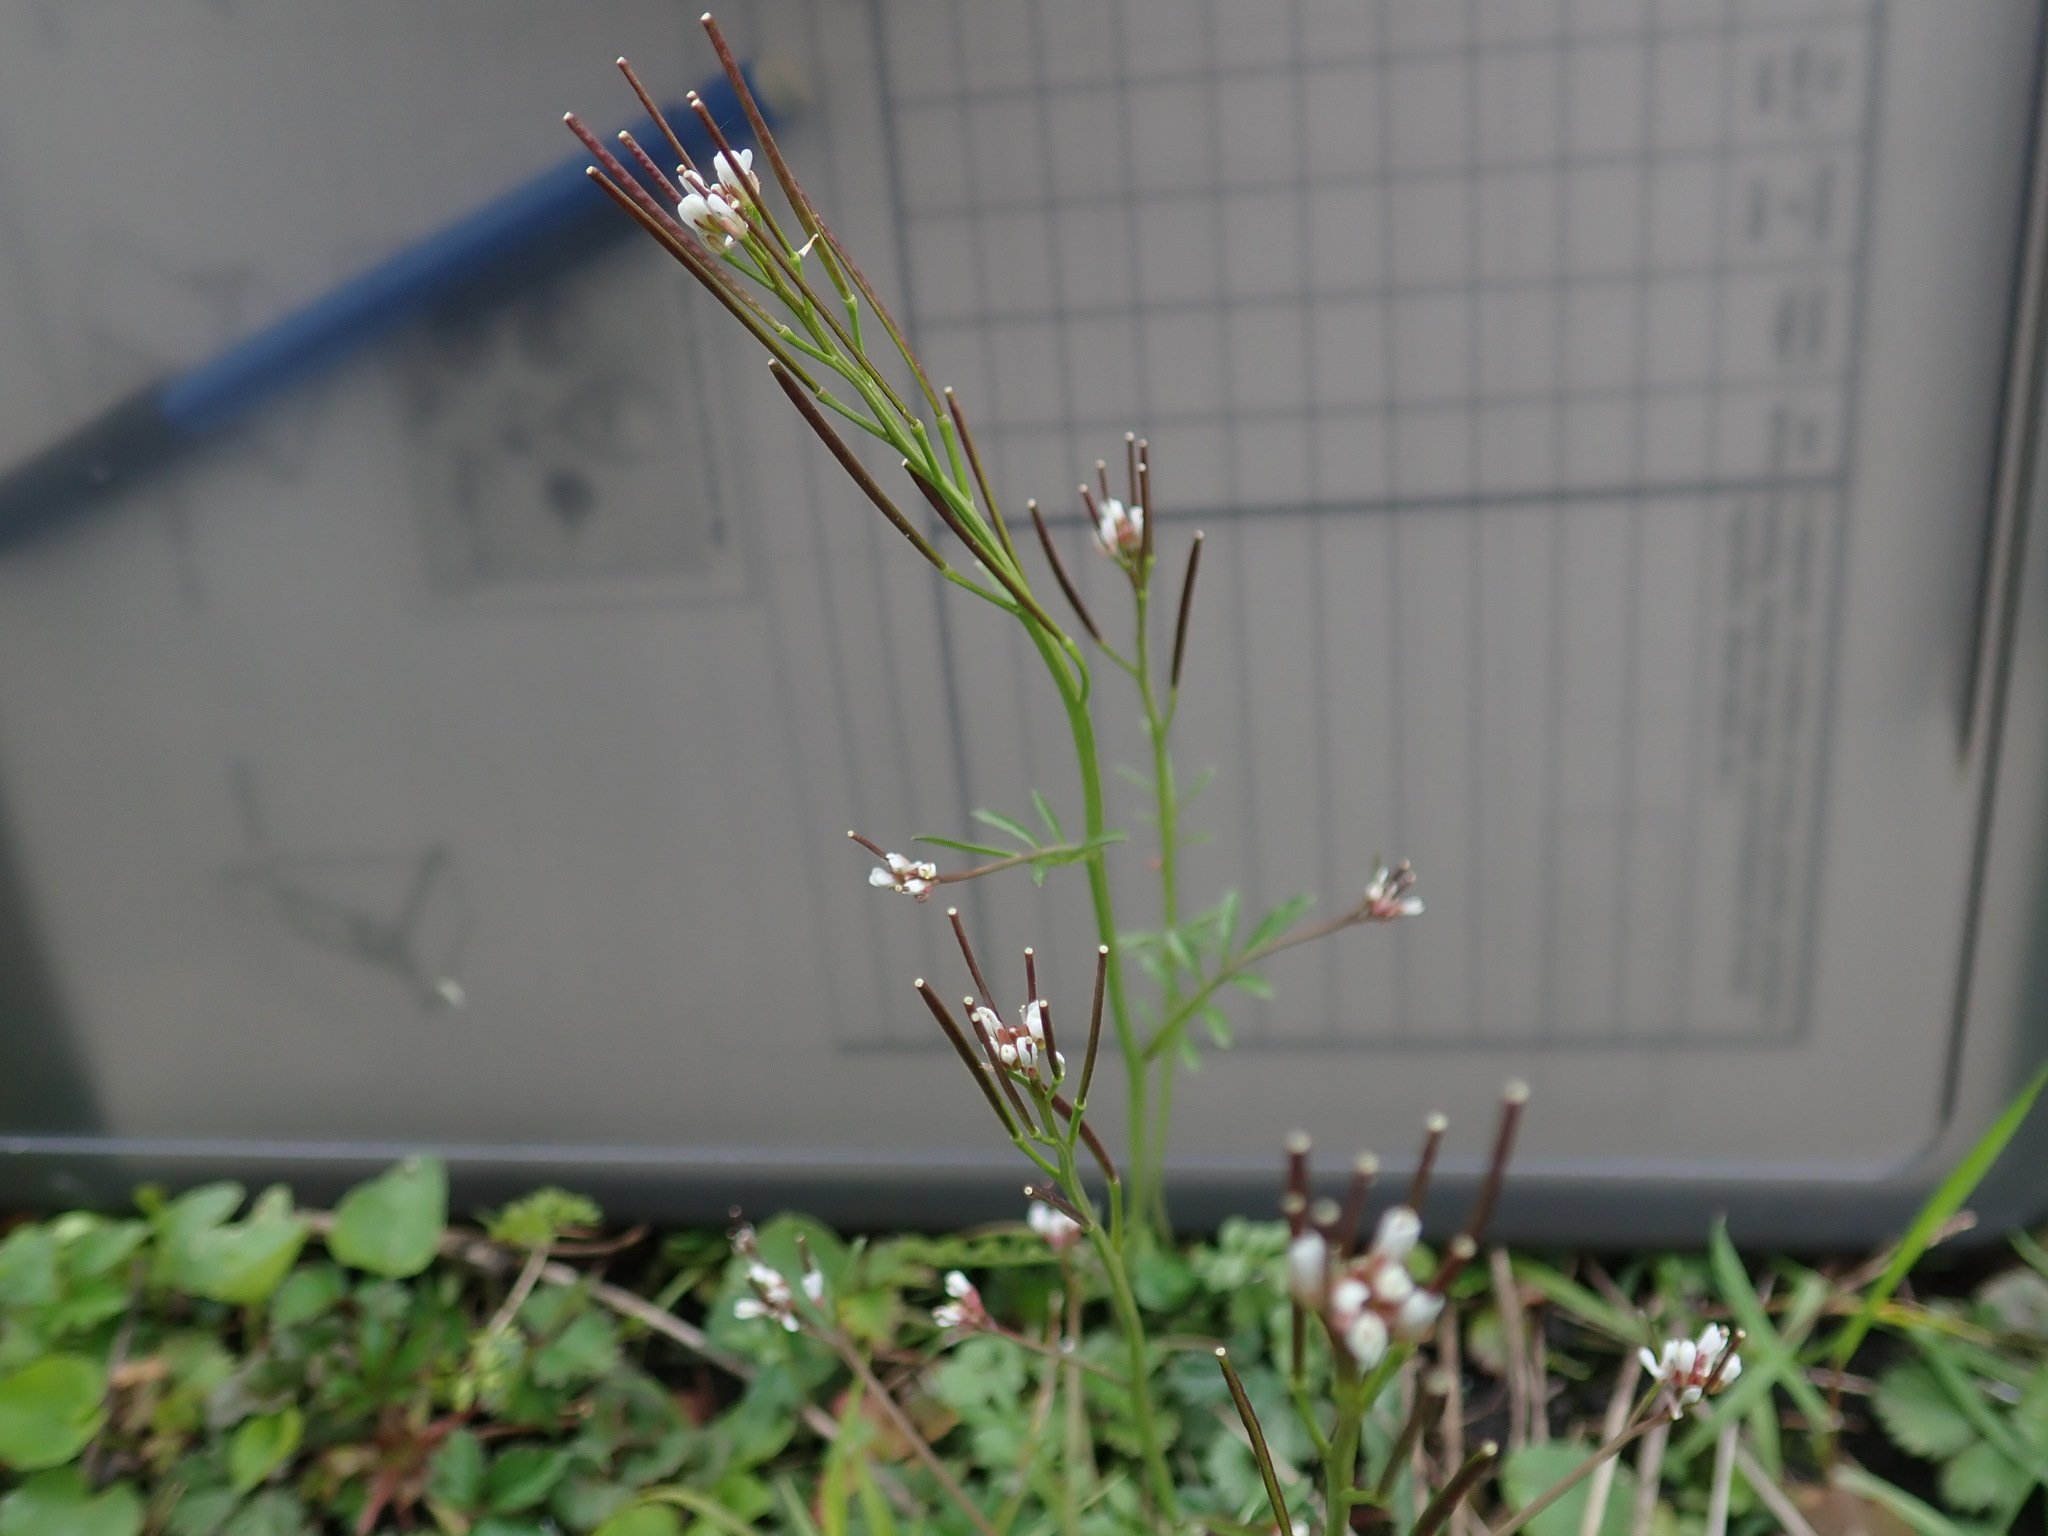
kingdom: Plantae
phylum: Tracheophyta
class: Magnoliopsida
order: Brassicales
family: Brassicaceae
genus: Cardamine
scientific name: Cardamine hirsuta
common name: Hairy bittercress
